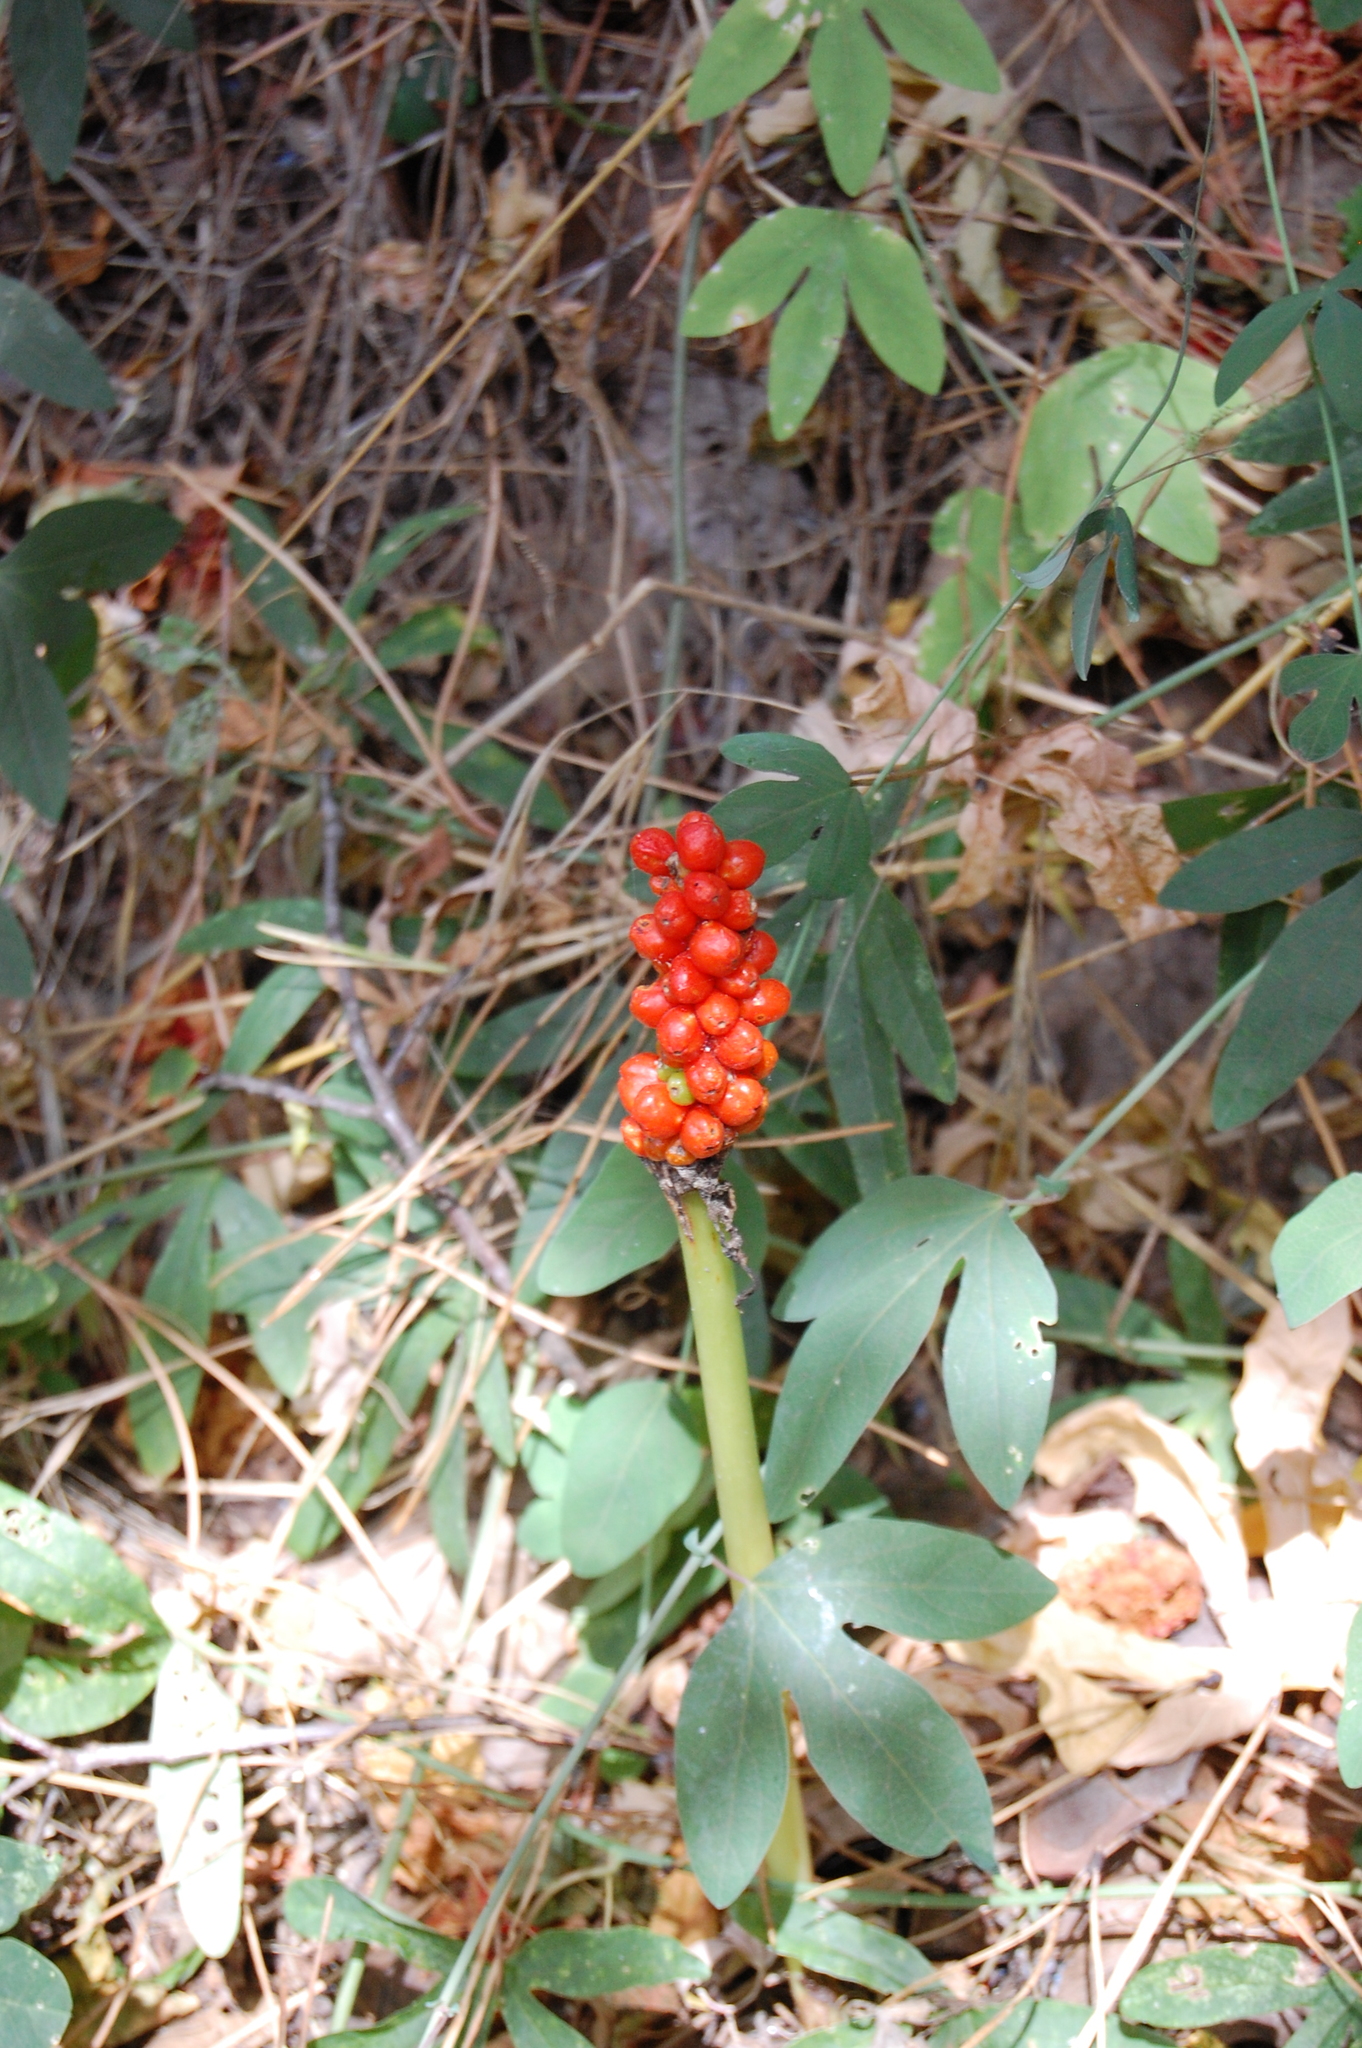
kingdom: Plantae
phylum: Tracheophyta
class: Liliopsida
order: Alismatales
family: Araceae
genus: Arum
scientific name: Arum italicum
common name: Italian lords-and-ladies
